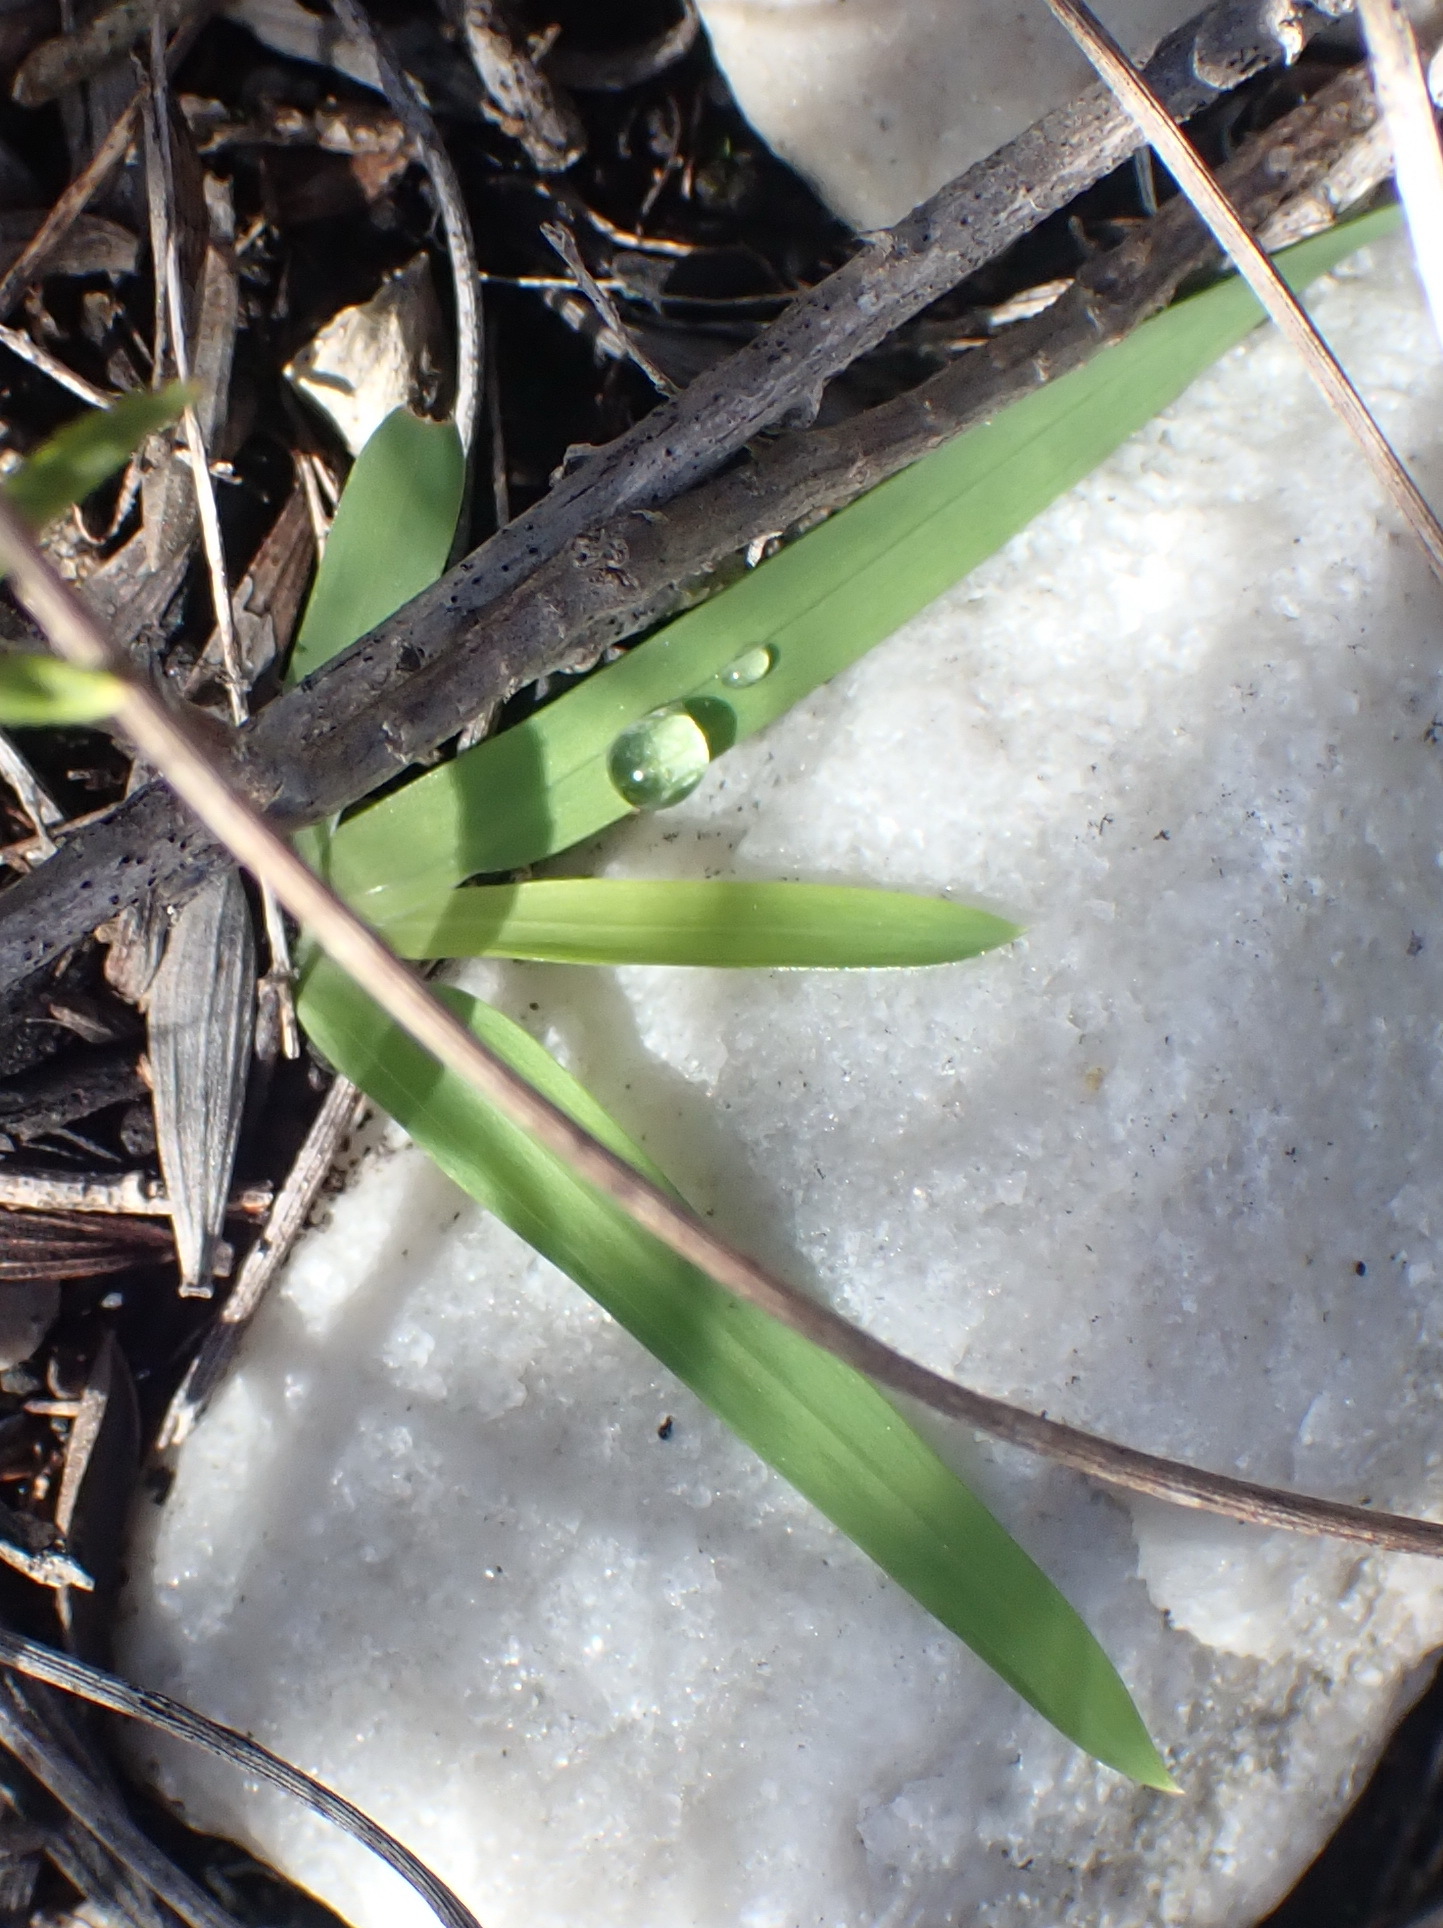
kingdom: Plantae
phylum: Tracheophyta
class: Liliopsida
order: Asparagales
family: Iridaceae
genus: Freesia
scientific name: Freesia leichtlinii
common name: Freesia
